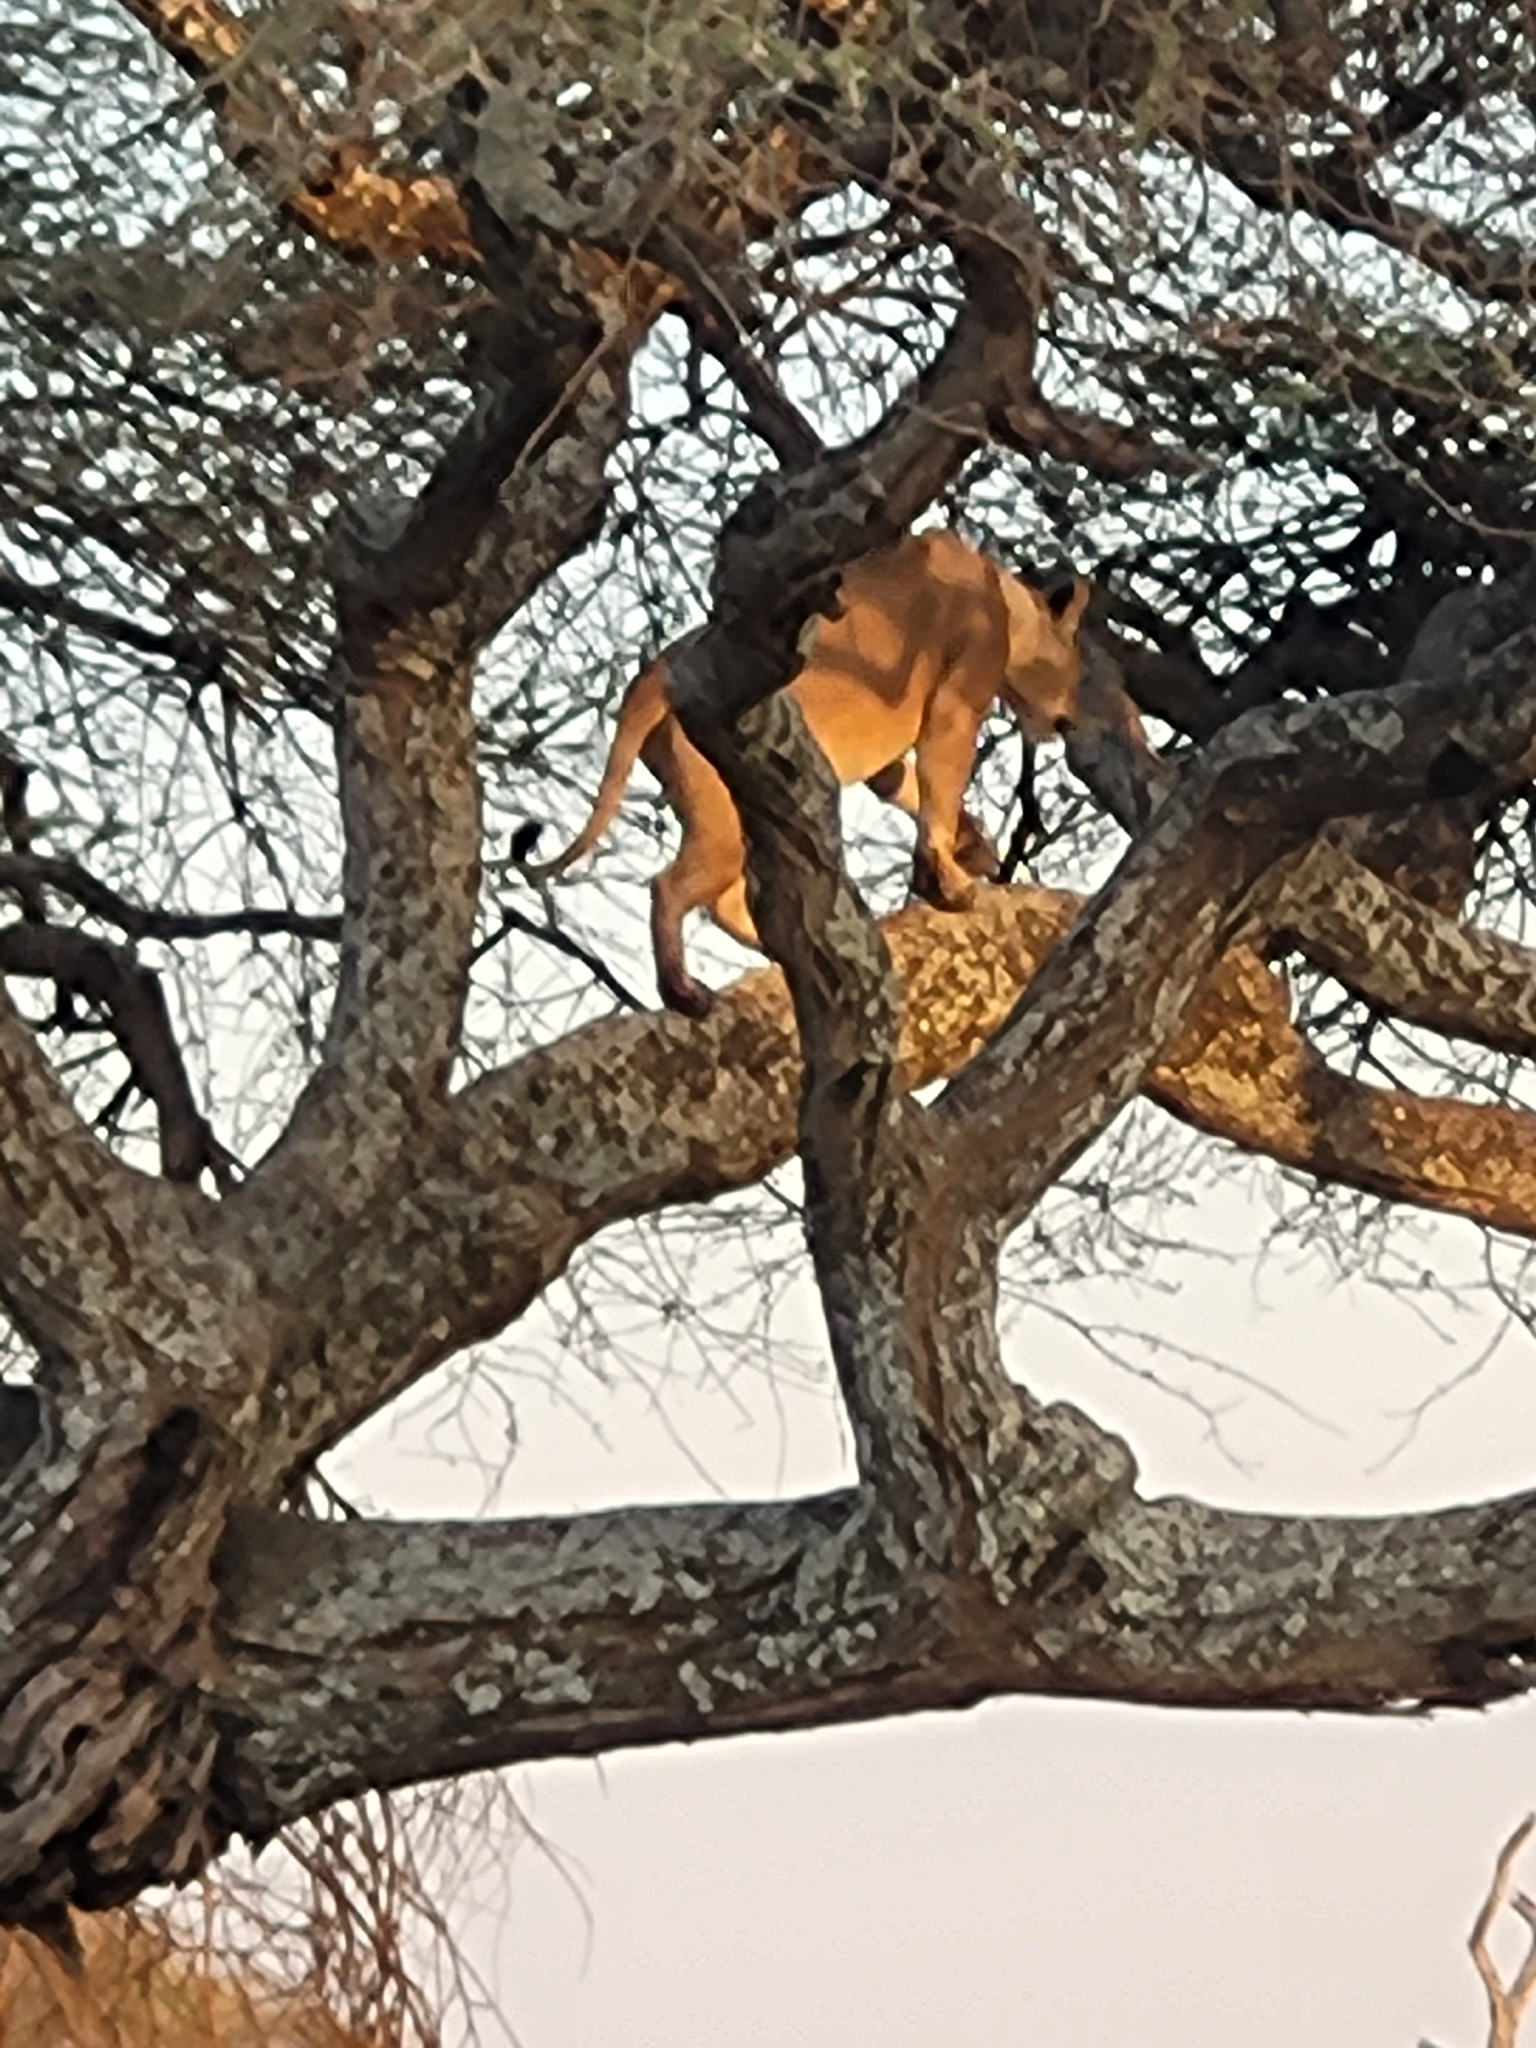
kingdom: Animalia
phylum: Chordata
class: Mammalia
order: Carnivora
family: Felidae
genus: Panthera
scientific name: Panthera leo
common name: Lion
